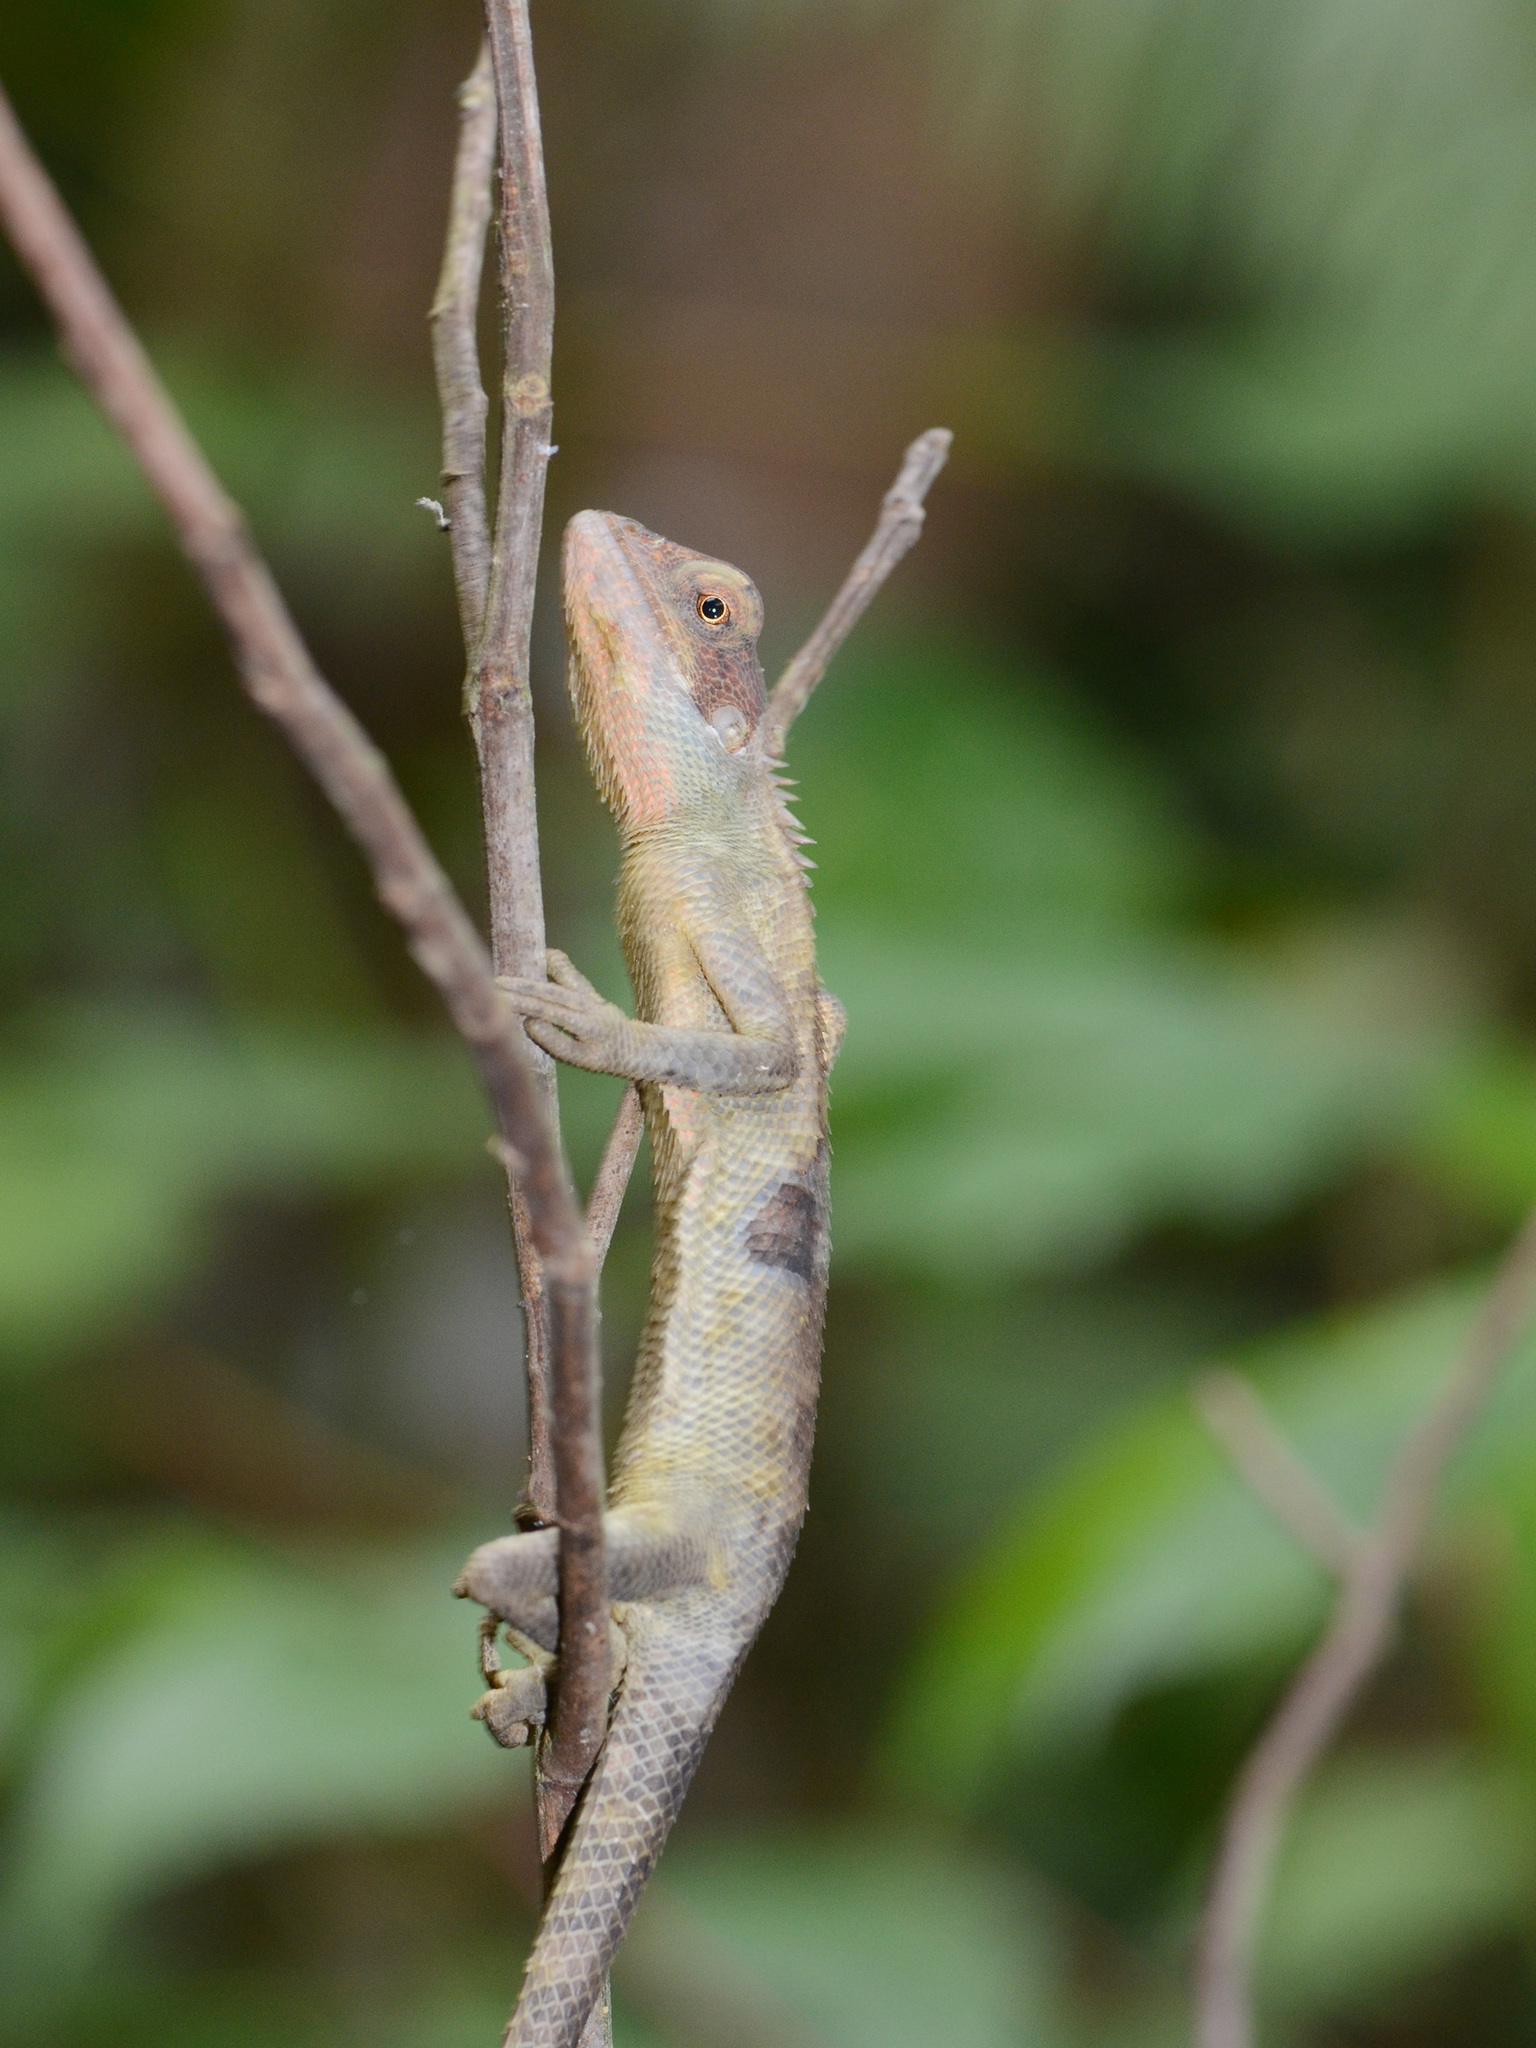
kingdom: Animalia
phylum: Chordata
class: Squamata
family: Agamidae
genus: Calotes
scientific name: Calotes versicolor
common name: Oriental garden lizard
